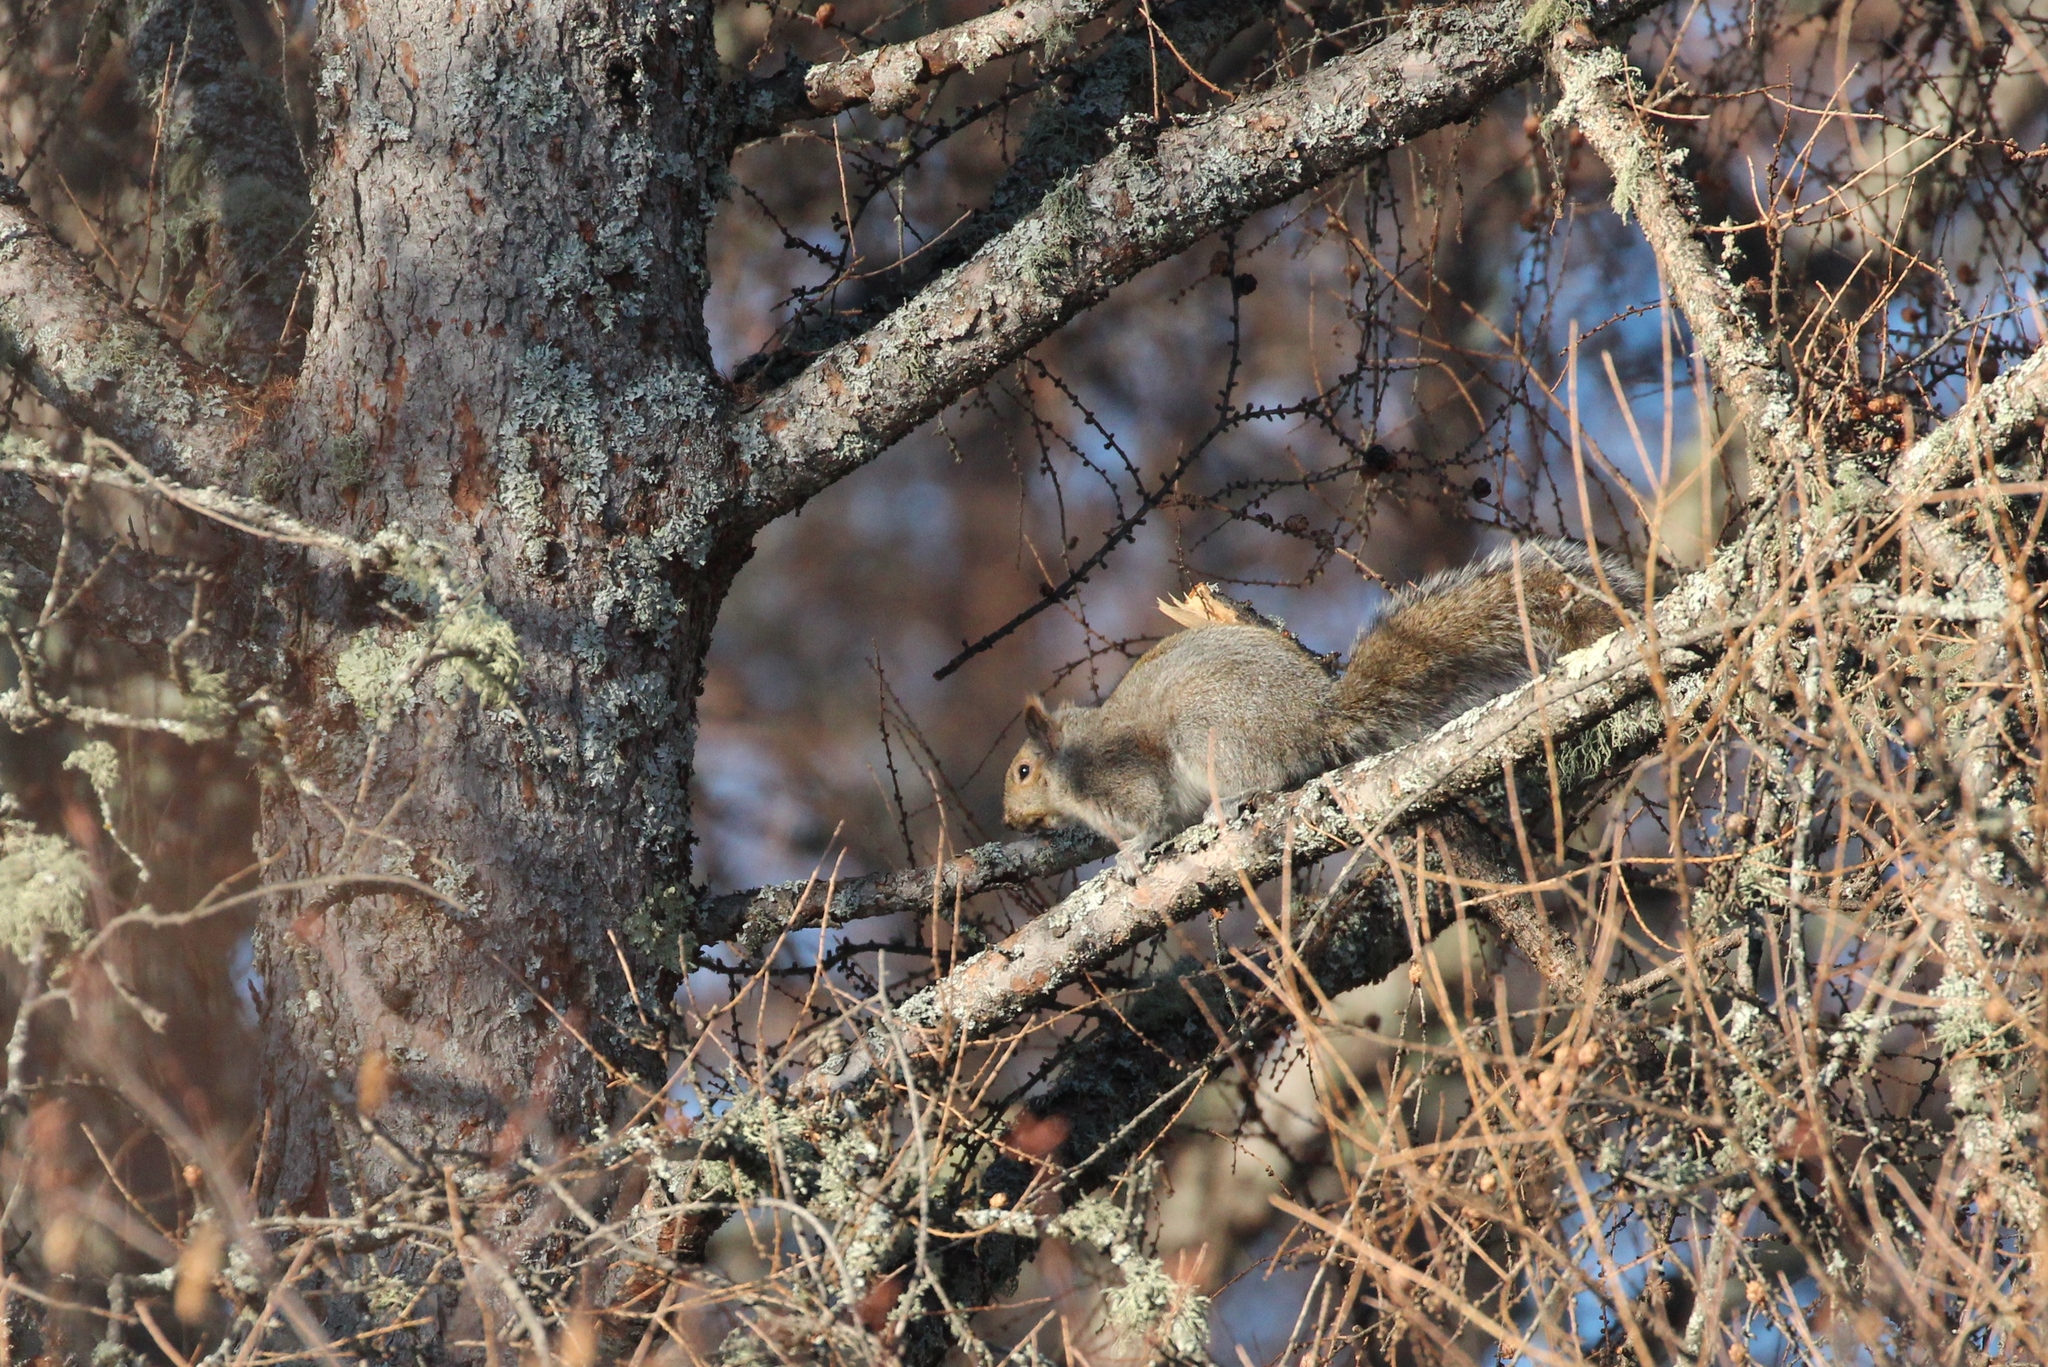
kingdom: Animalia
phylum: Chordata
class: Mammalia
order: Rodentia
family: Sciuridae
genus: Sciurus
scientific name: Sciurus carolinensis
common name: Eastern gray squirrel
